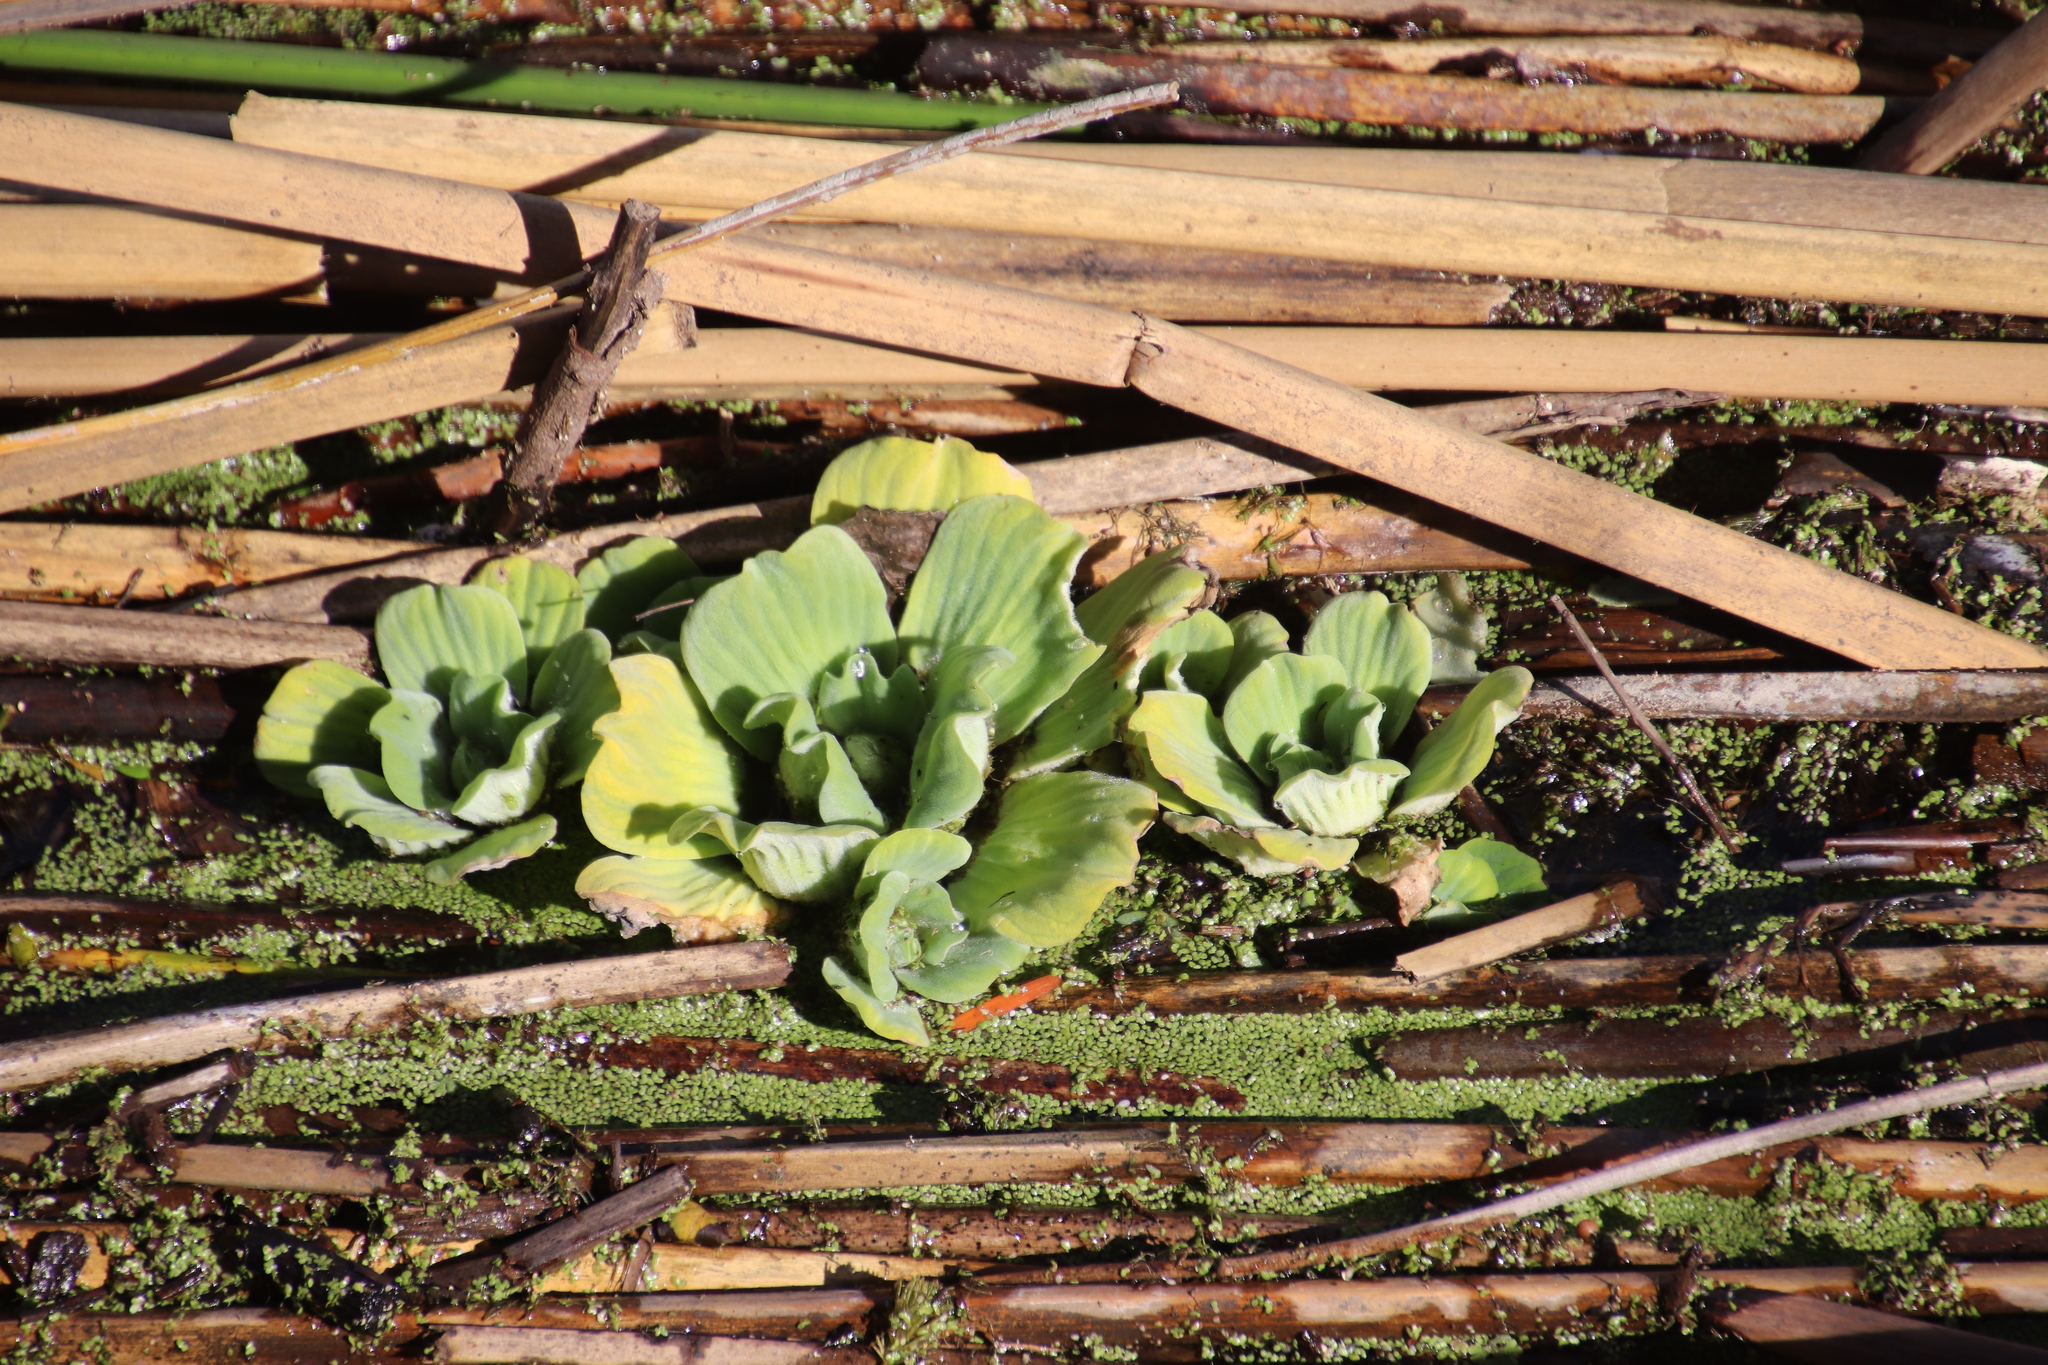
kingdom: Plantae
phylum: Tracheophyta
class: Liliopsida
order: Alismatales
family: Araceae
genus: Pistia
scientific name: Pistia stratiotes
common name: Water lettuce
